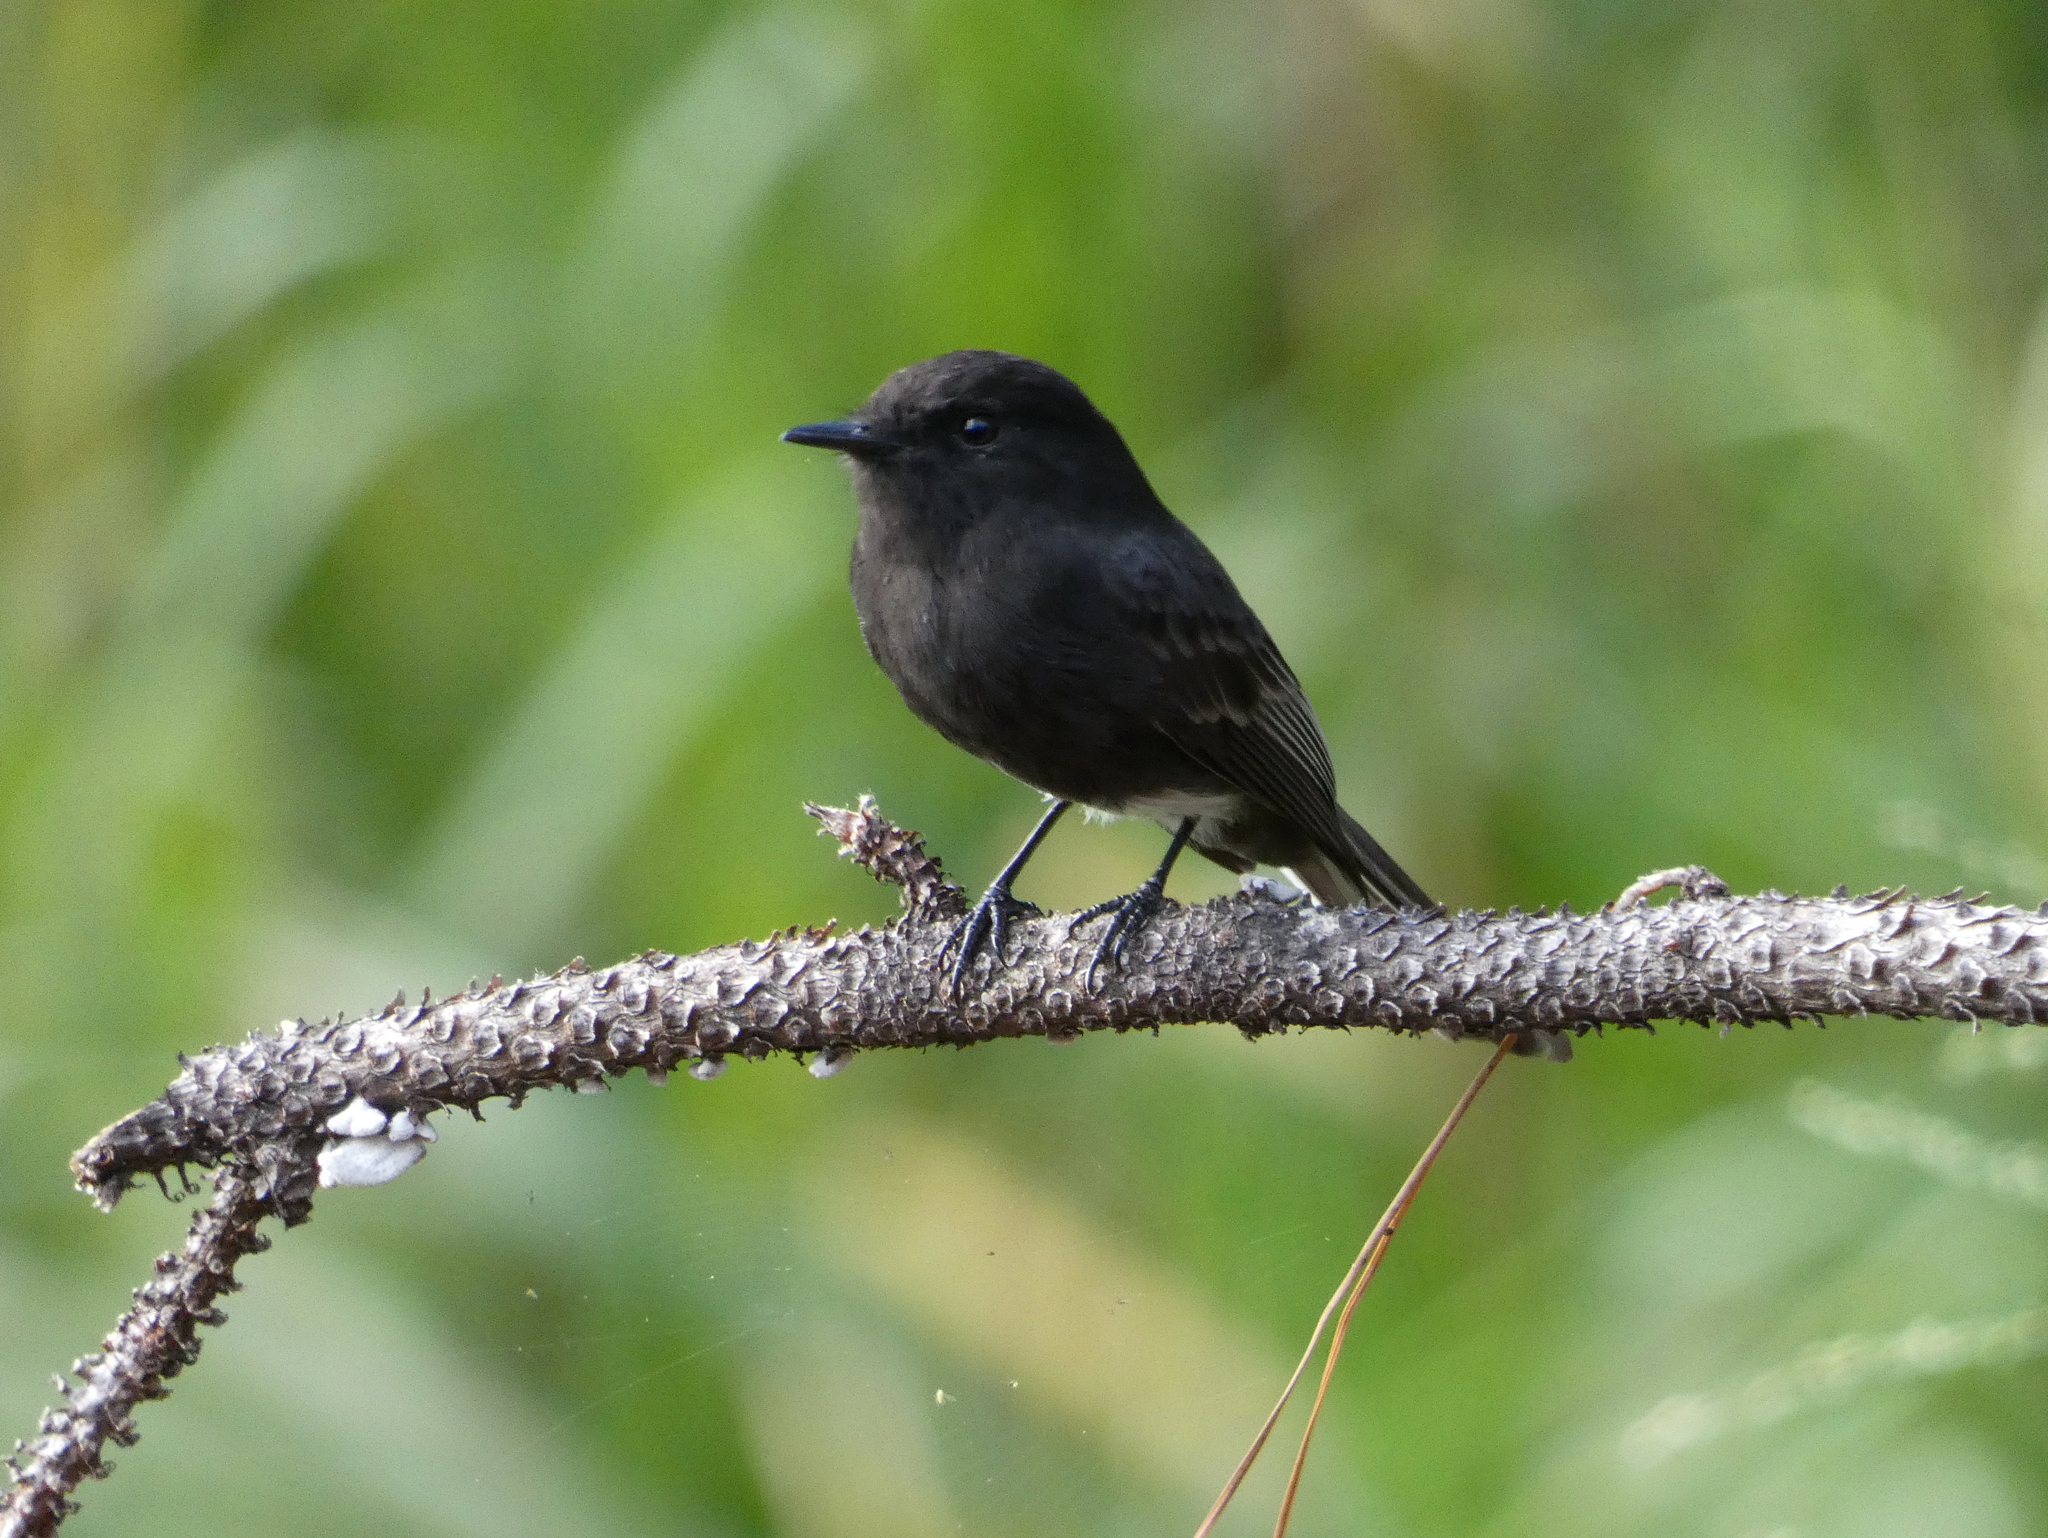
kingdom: Animalia
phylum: Chordata
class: Aves
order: Passeriformes
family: Tyrannidae
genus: Sayornis
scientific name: Sayornis nigricans
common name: Black phoebe
